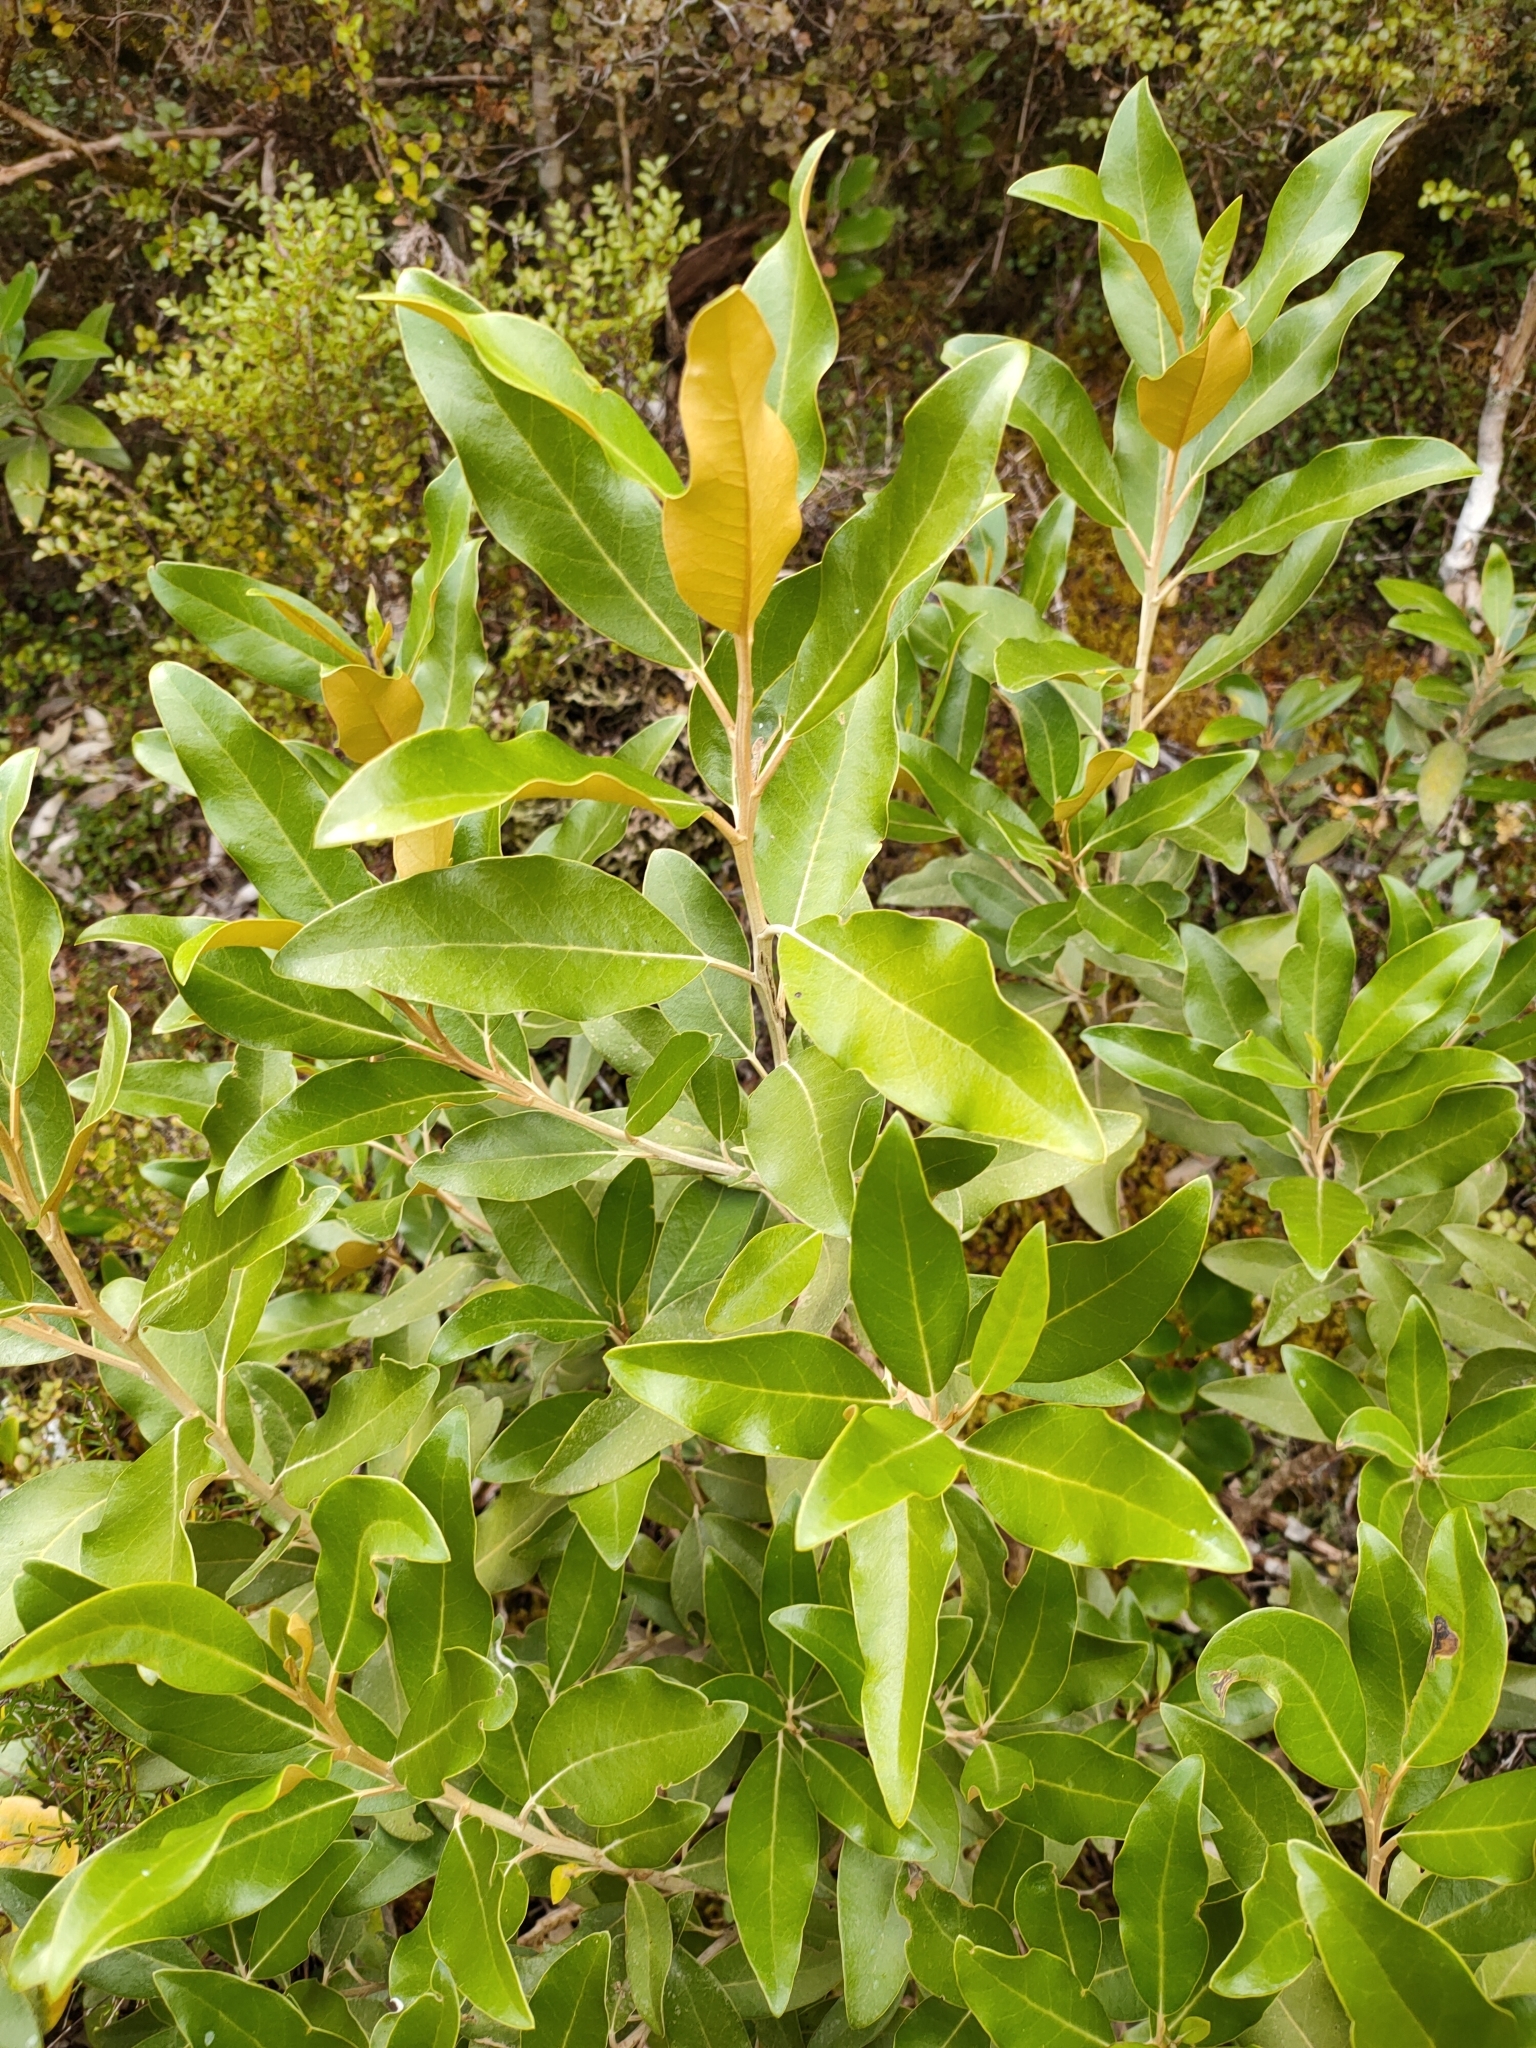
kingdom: Plantae
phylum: Tracheophyta
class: Magnoliopsida
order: Asterales
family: Asteraceae
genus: Olearia
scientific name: Olearia avicenniifolia
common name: Mangrove-leaf daisybush
